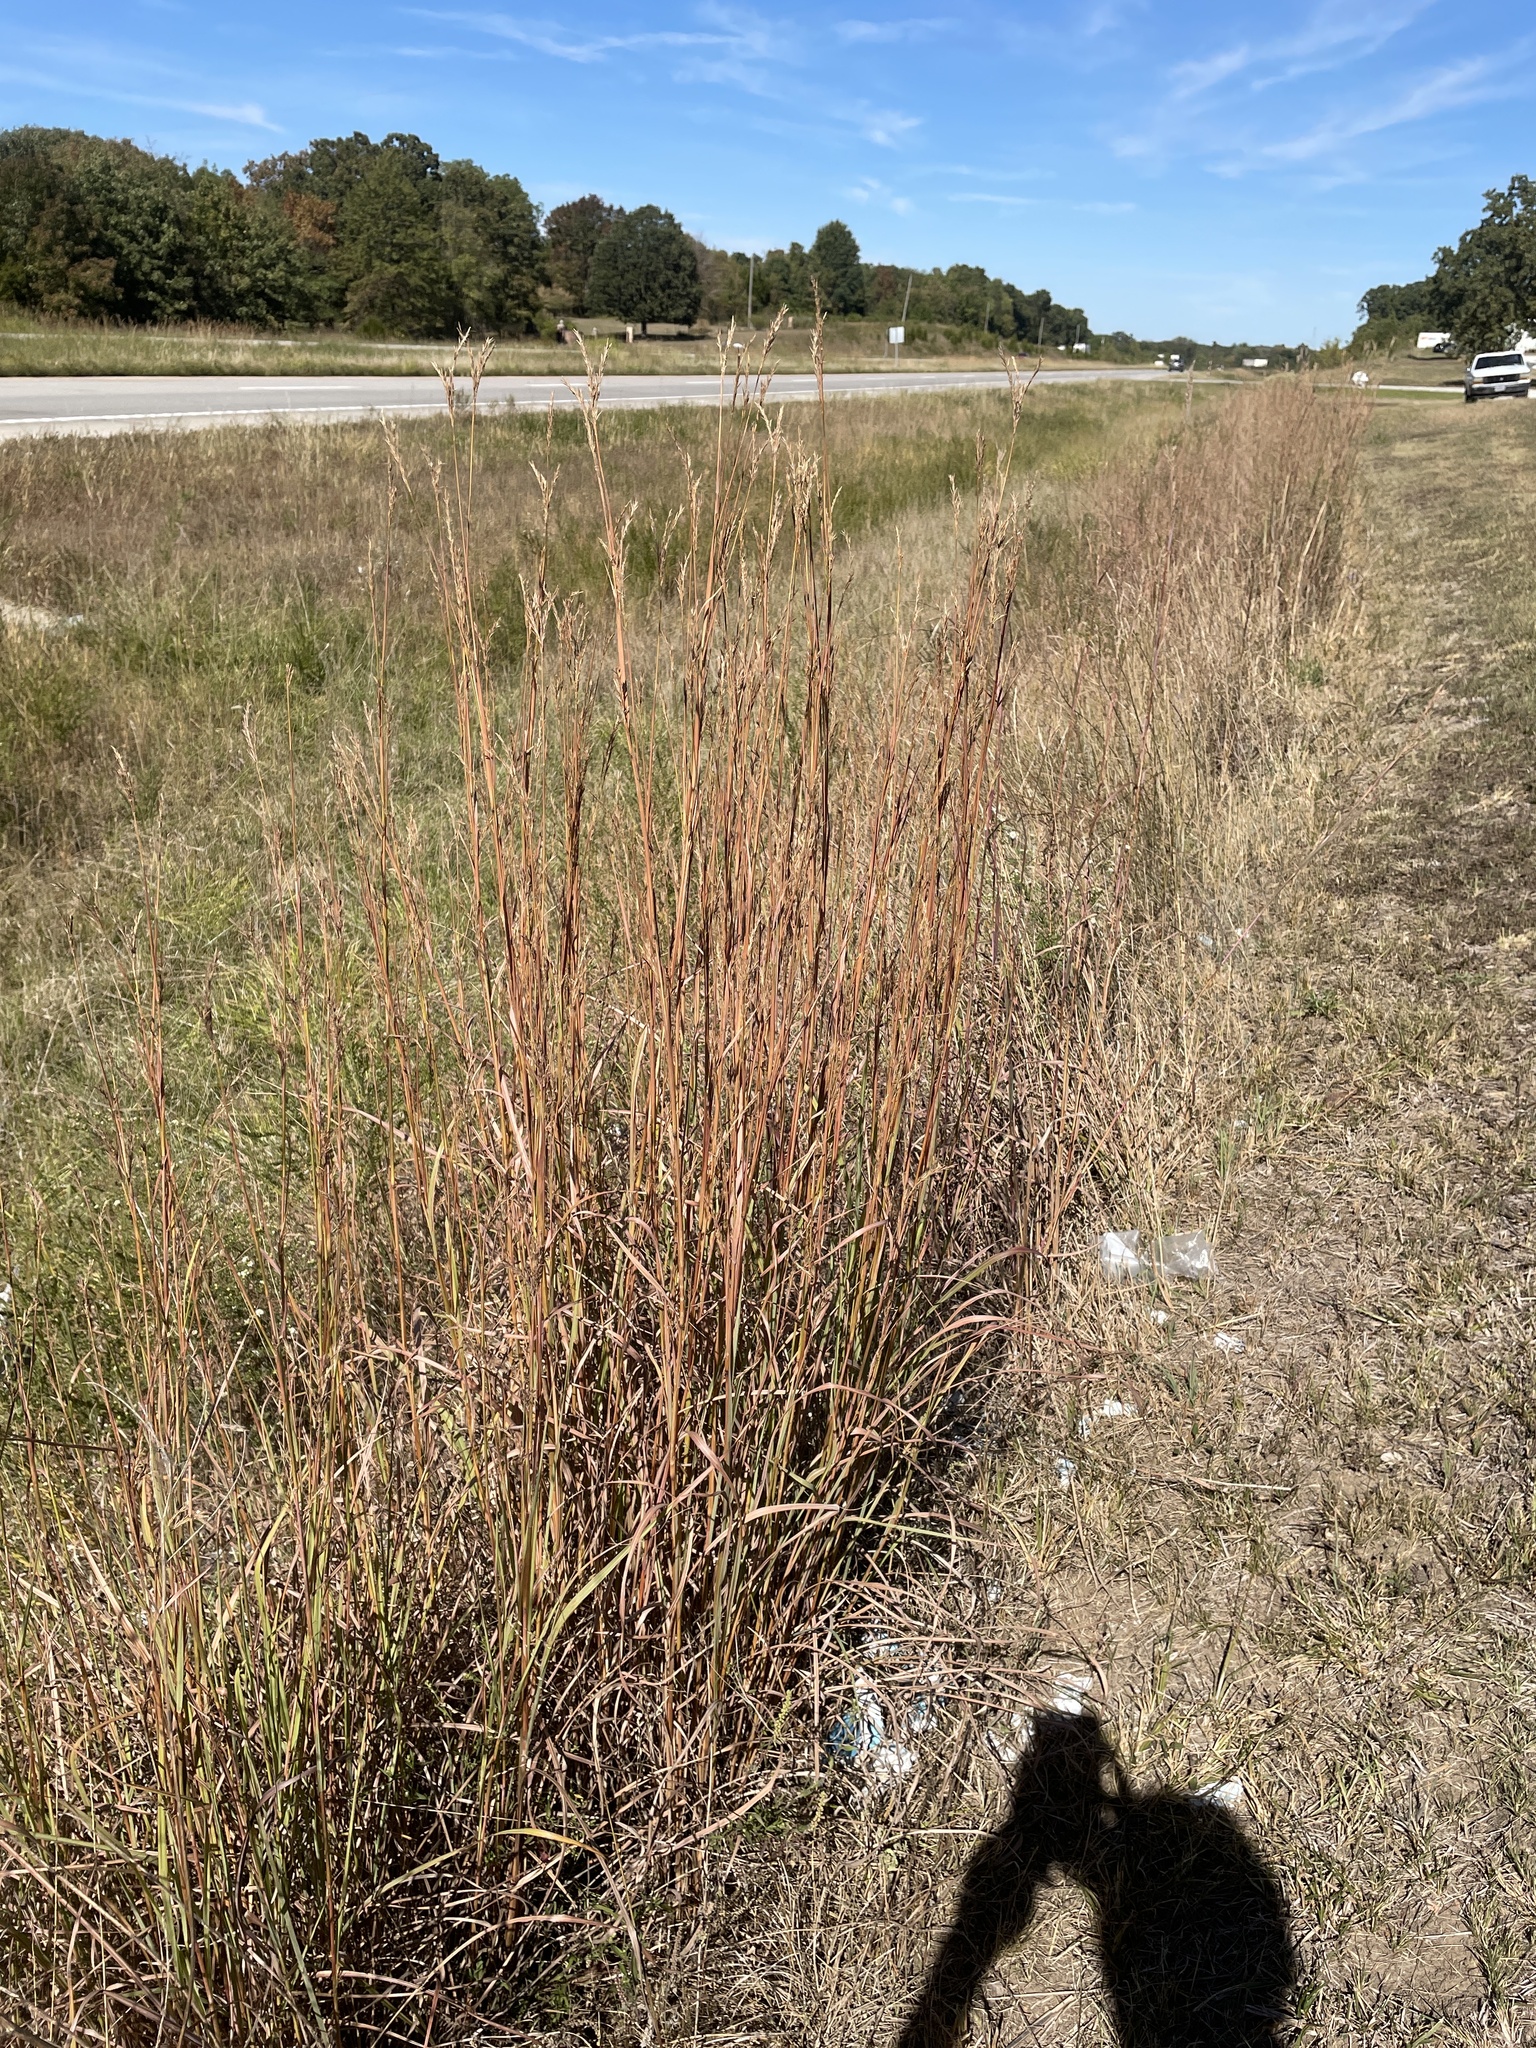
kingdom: Plantae
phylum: Tracheophyta
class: Liliopsida
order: Poales
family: Poaceae
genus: Andropogon
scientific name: Andropogon gerardi
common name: Big bluestem
